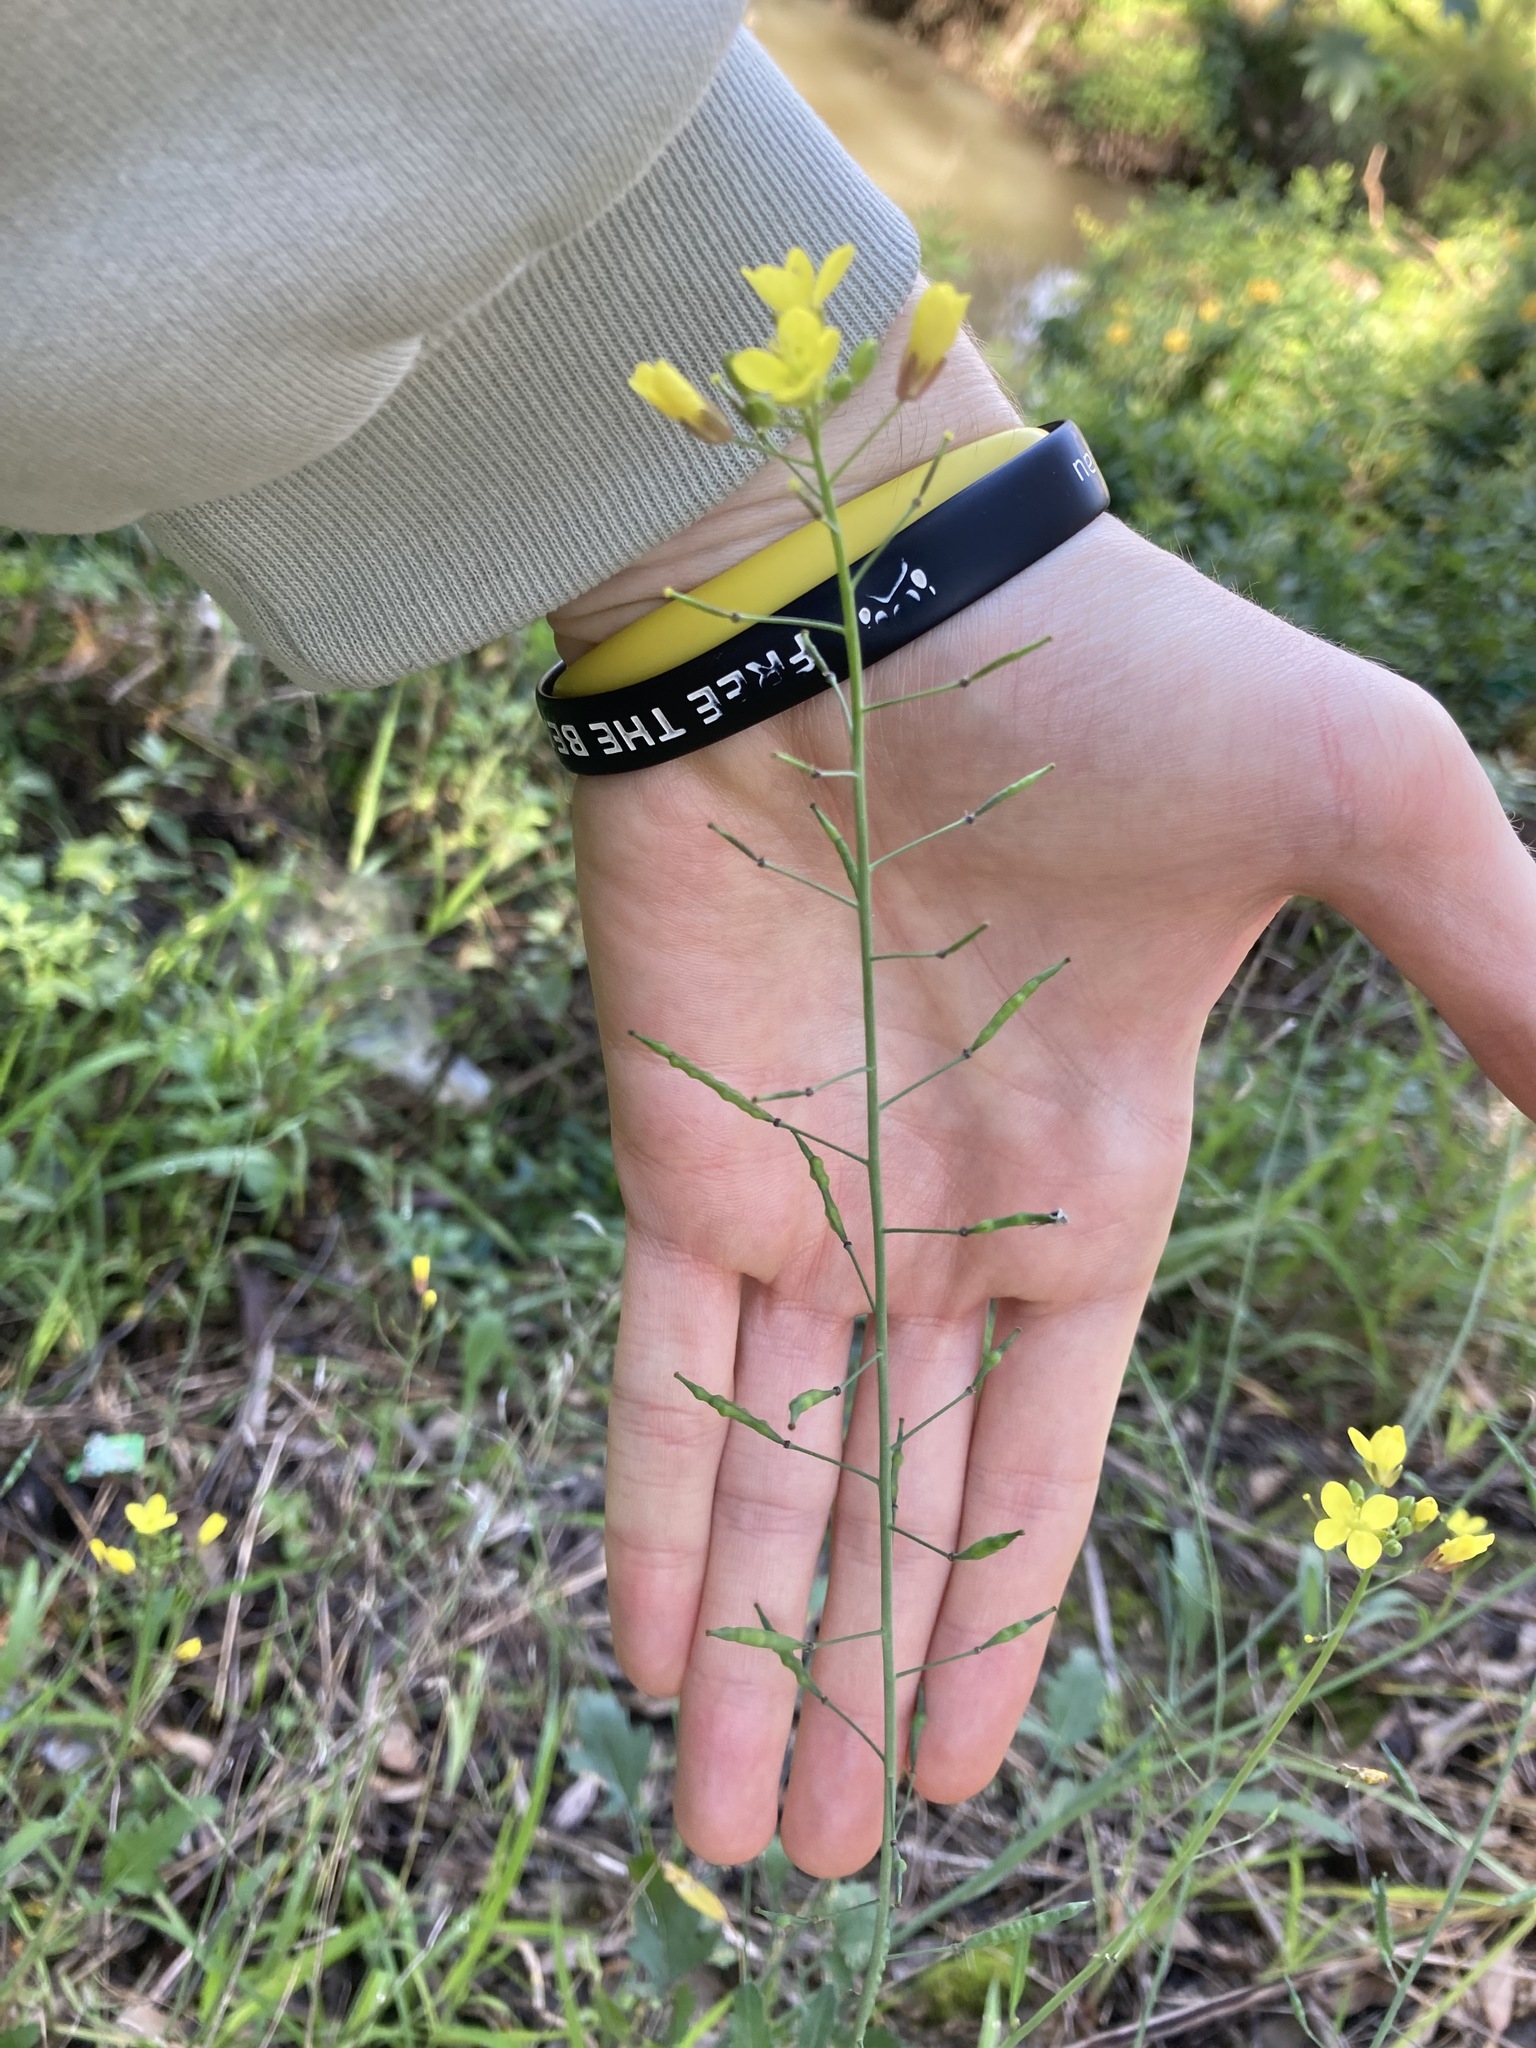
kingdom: Plantae
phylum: Tracheophyta
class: Magnoliopsida
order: Brassicales
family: Brassicaceae
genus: Brassica
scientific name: Brassica fruticulosa
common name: Twiggy turnip
